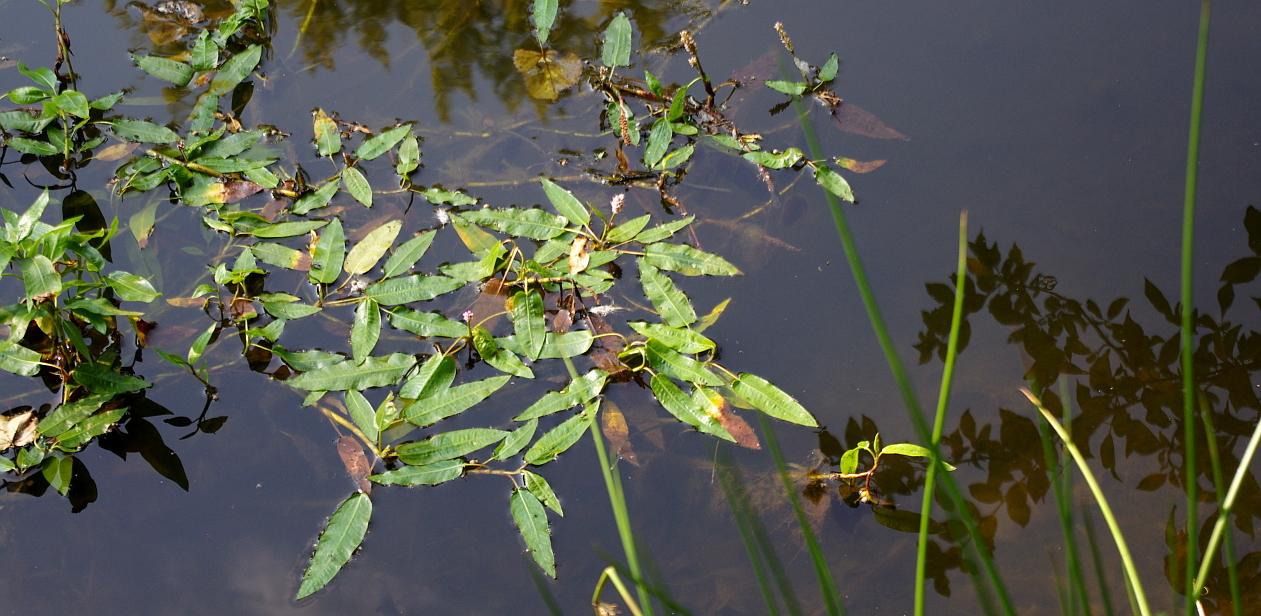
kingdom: Plantae
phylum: Tracheophyta
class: Magnoliopsida
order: Caryophyllales
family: Polygonaceae
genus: Persicaria
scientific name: Persicaria amphibia
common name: Amphibious bistort
